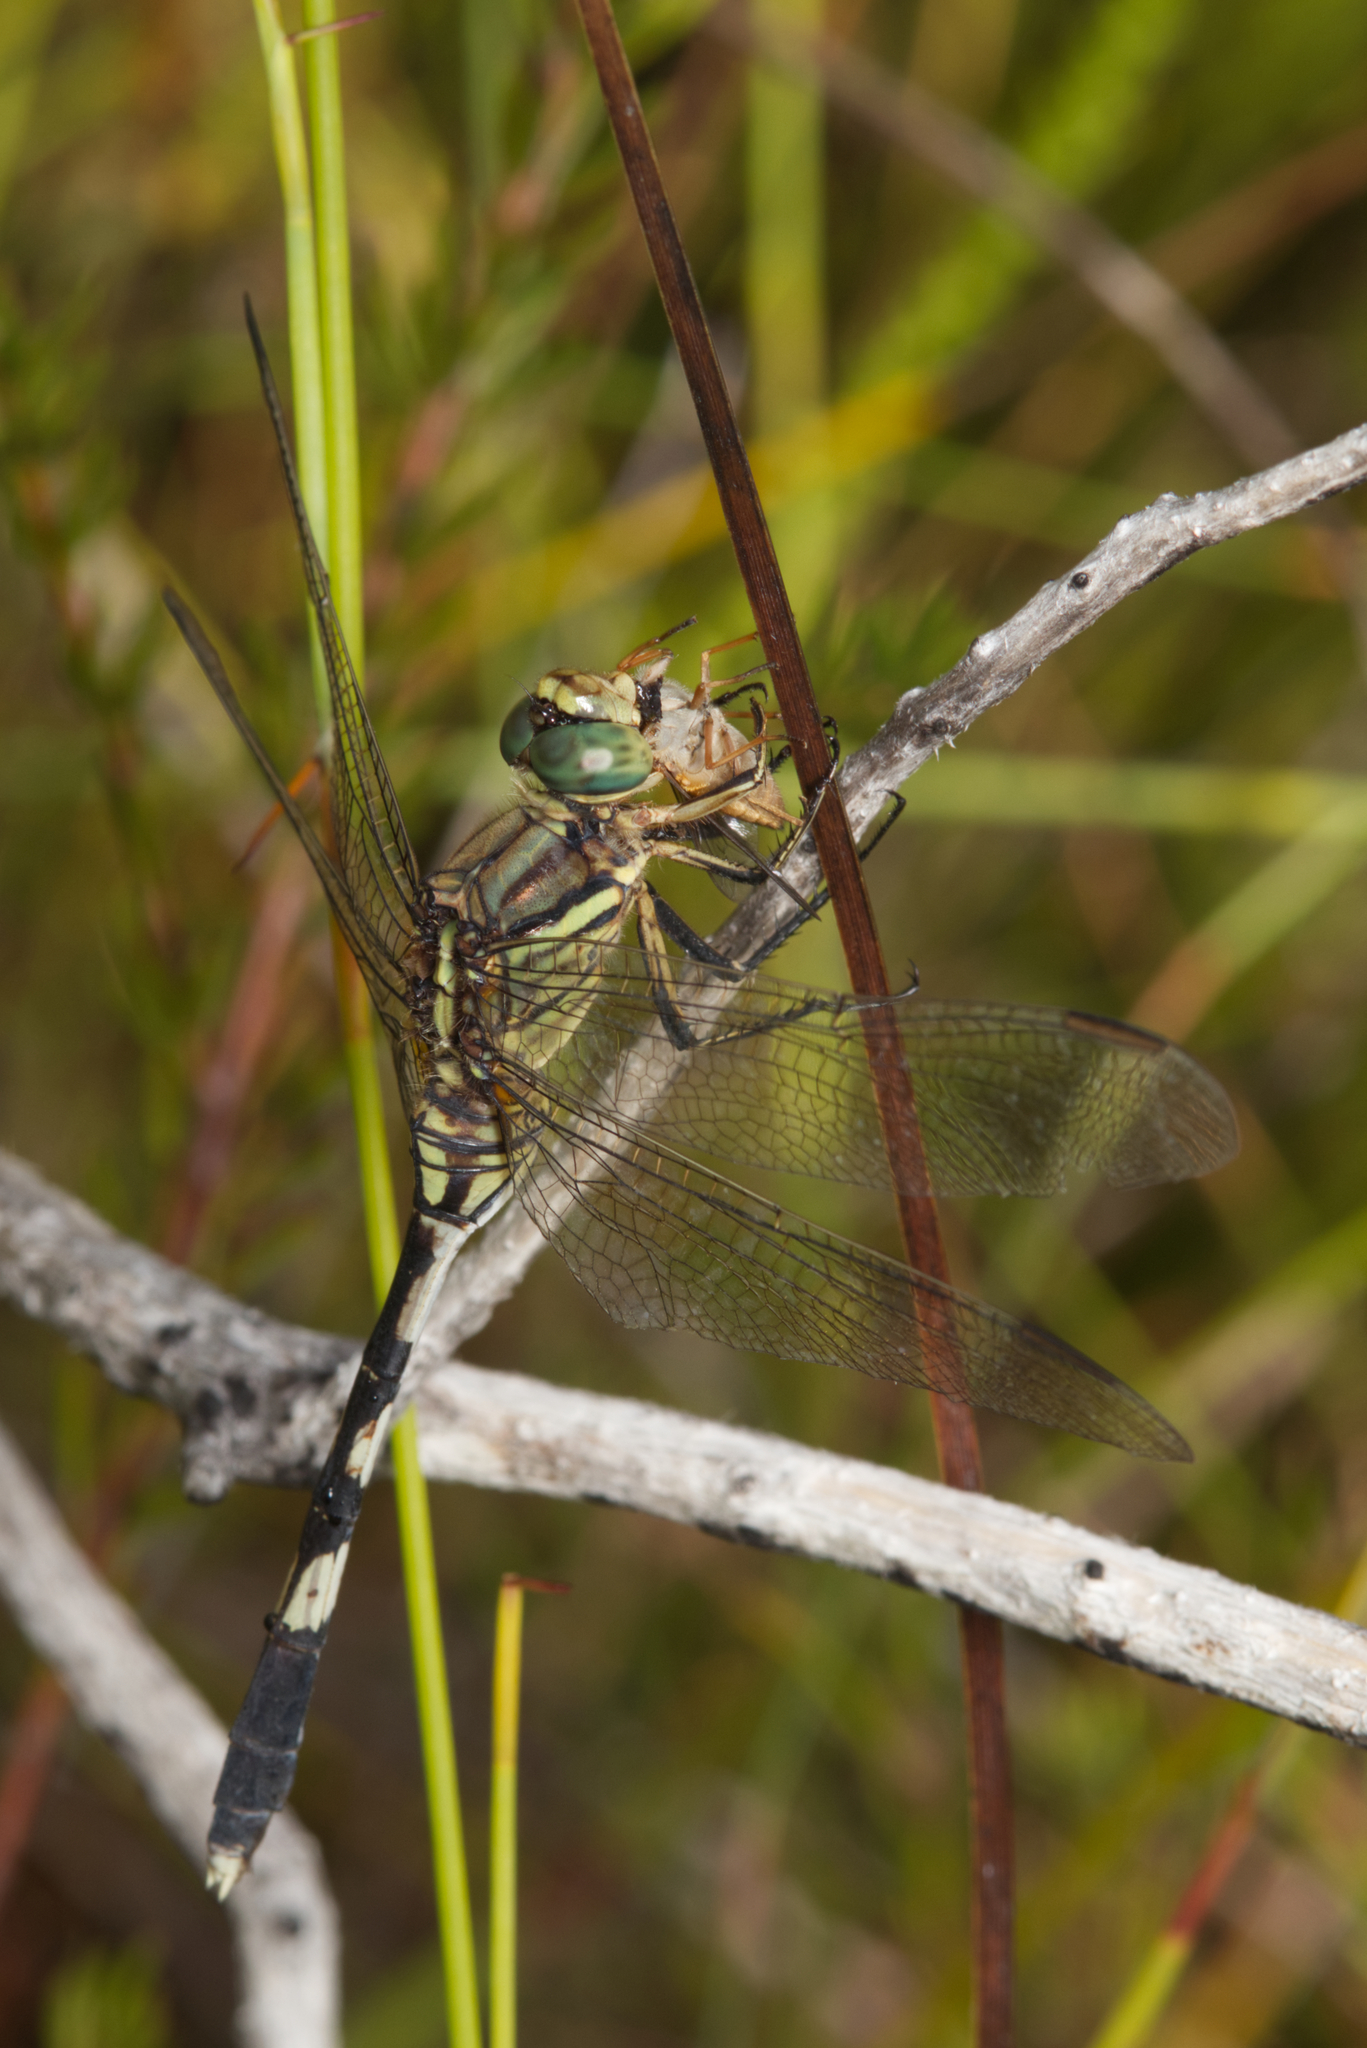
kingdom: Animalia
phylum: Arthropoda
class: Insecta
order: Odonata
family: Libellulidae
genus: Orthetrum
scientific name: Orthetrum sabina
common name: Slender skimmer
